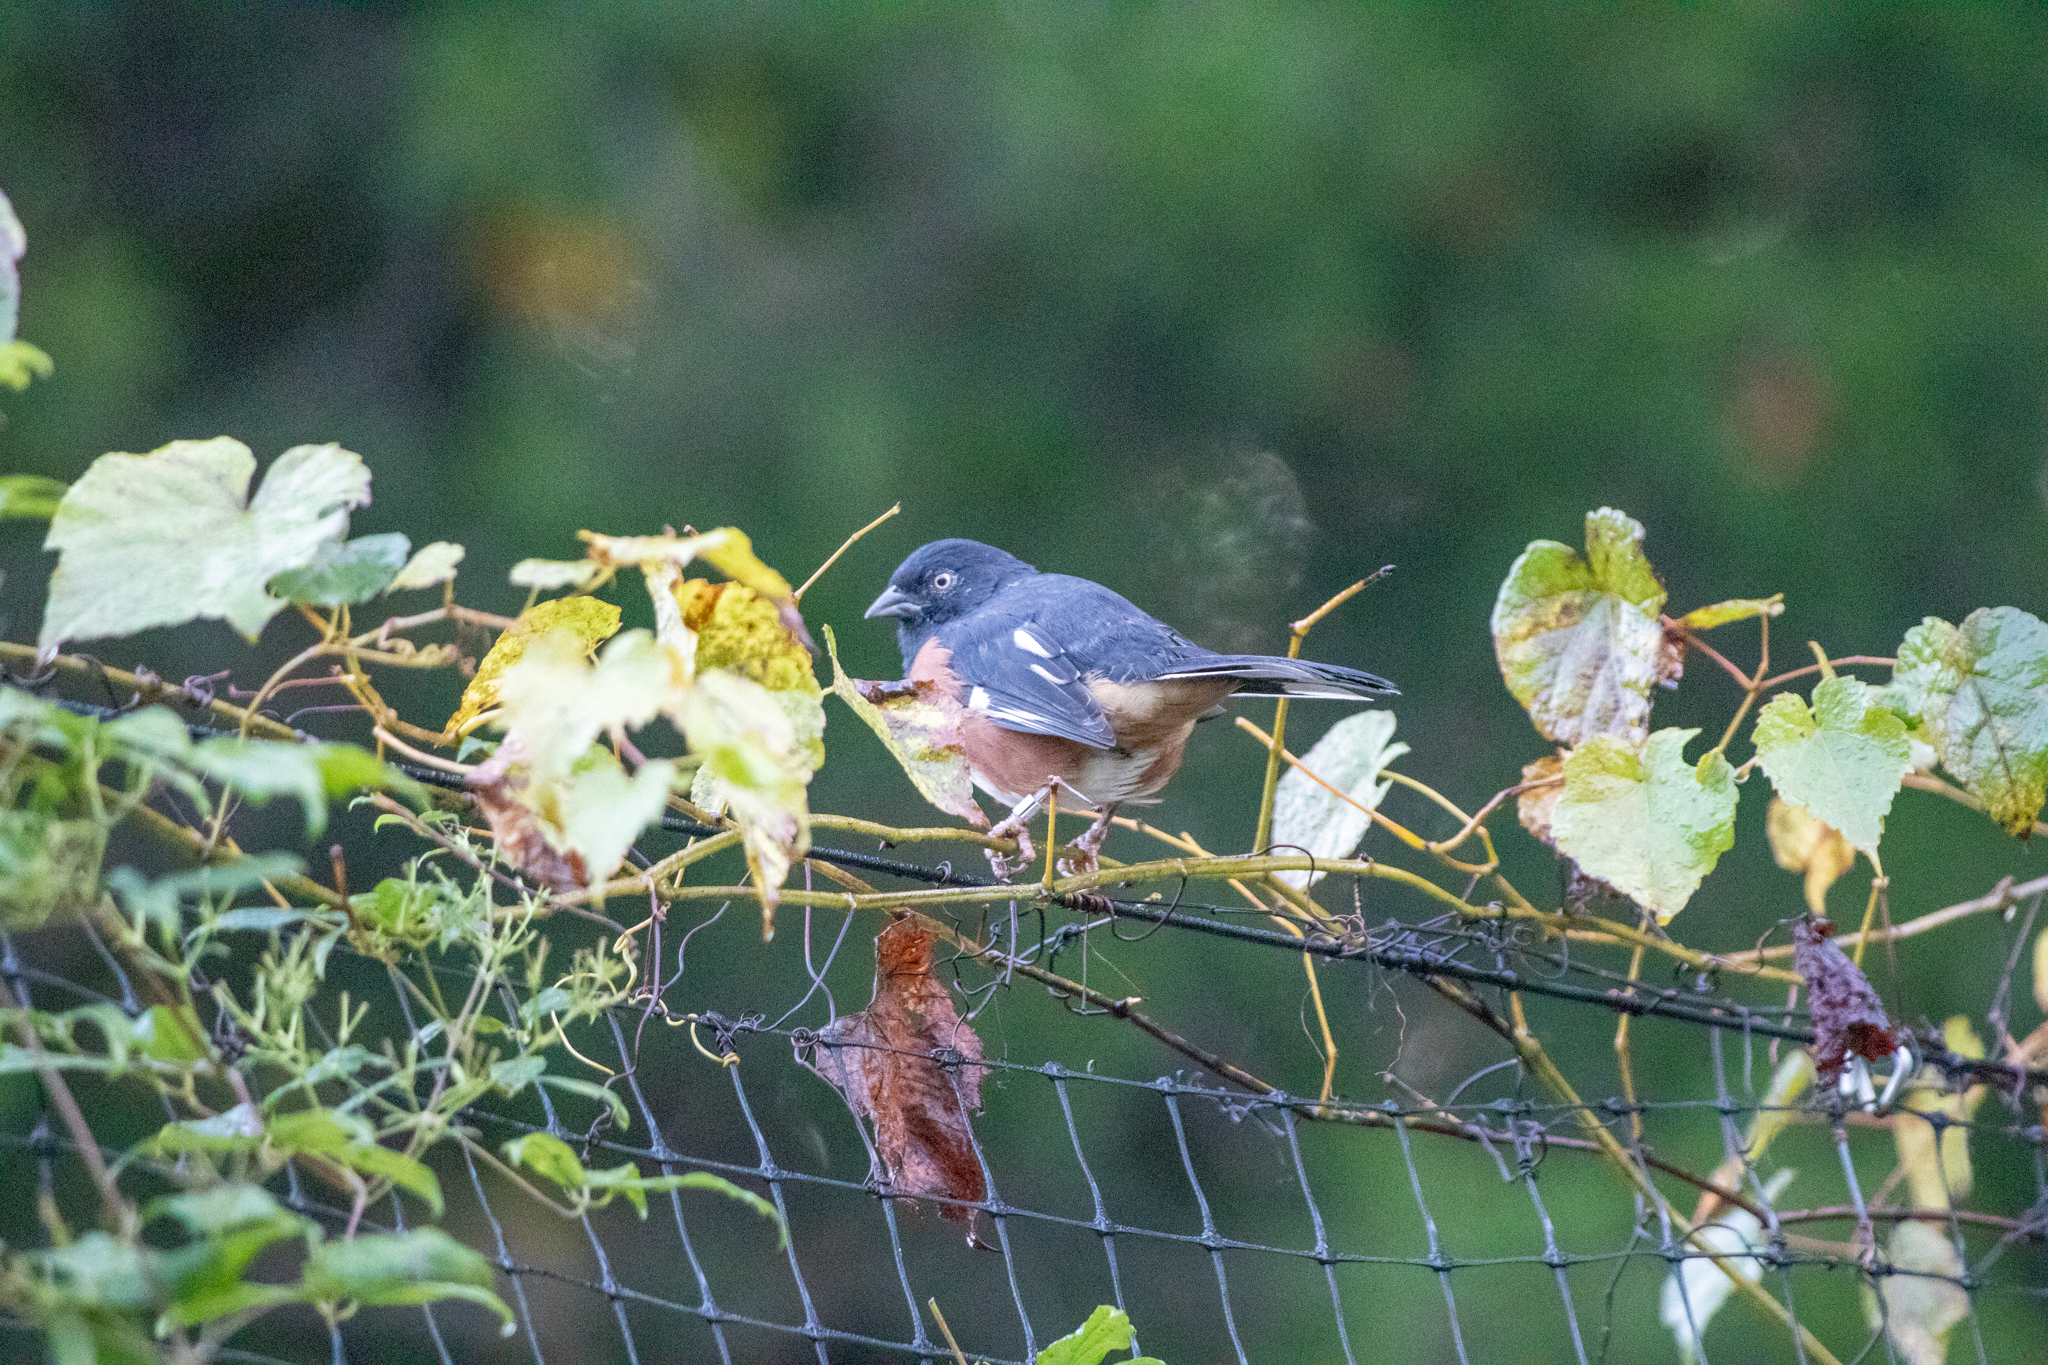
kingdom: Animalia
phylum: Chordata
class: Aves
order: Passeriformes
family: Passerellidae
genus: Pipilo
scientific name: Pipilo erythrophthalmus
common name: Eastern towhee
